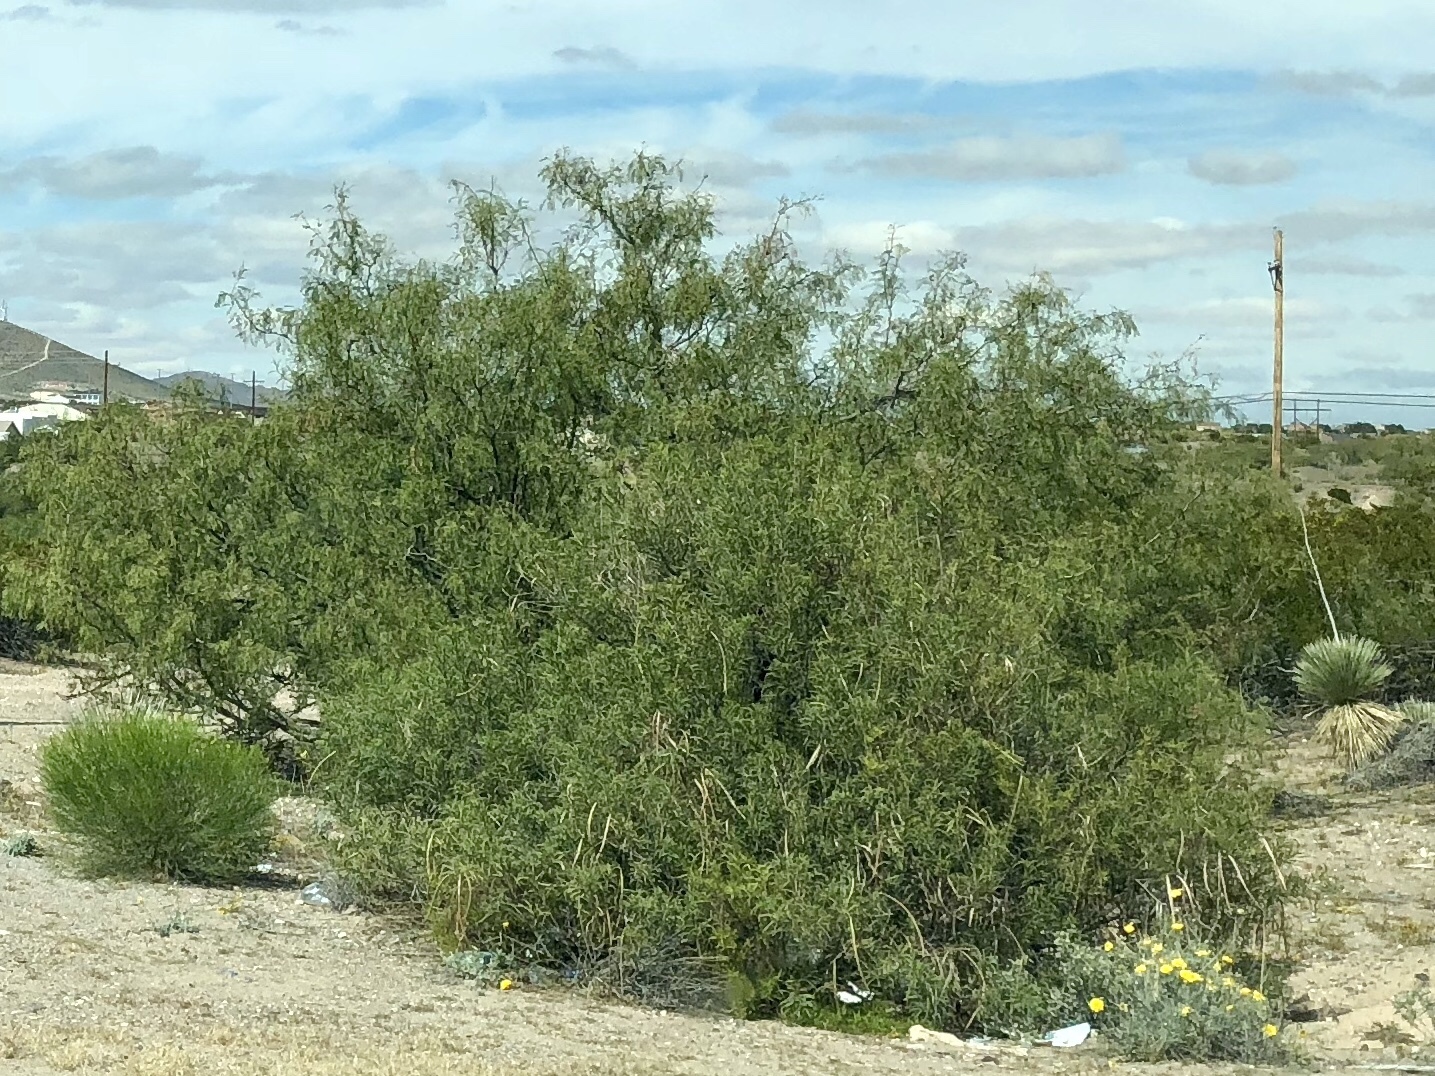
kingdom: Plantae
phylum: Tracheophyta
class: Magnoliopsida
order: Fabales
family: Fabaceae
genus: Prosopis
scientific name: Prosopis glandulosa
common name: Honey mesquite
